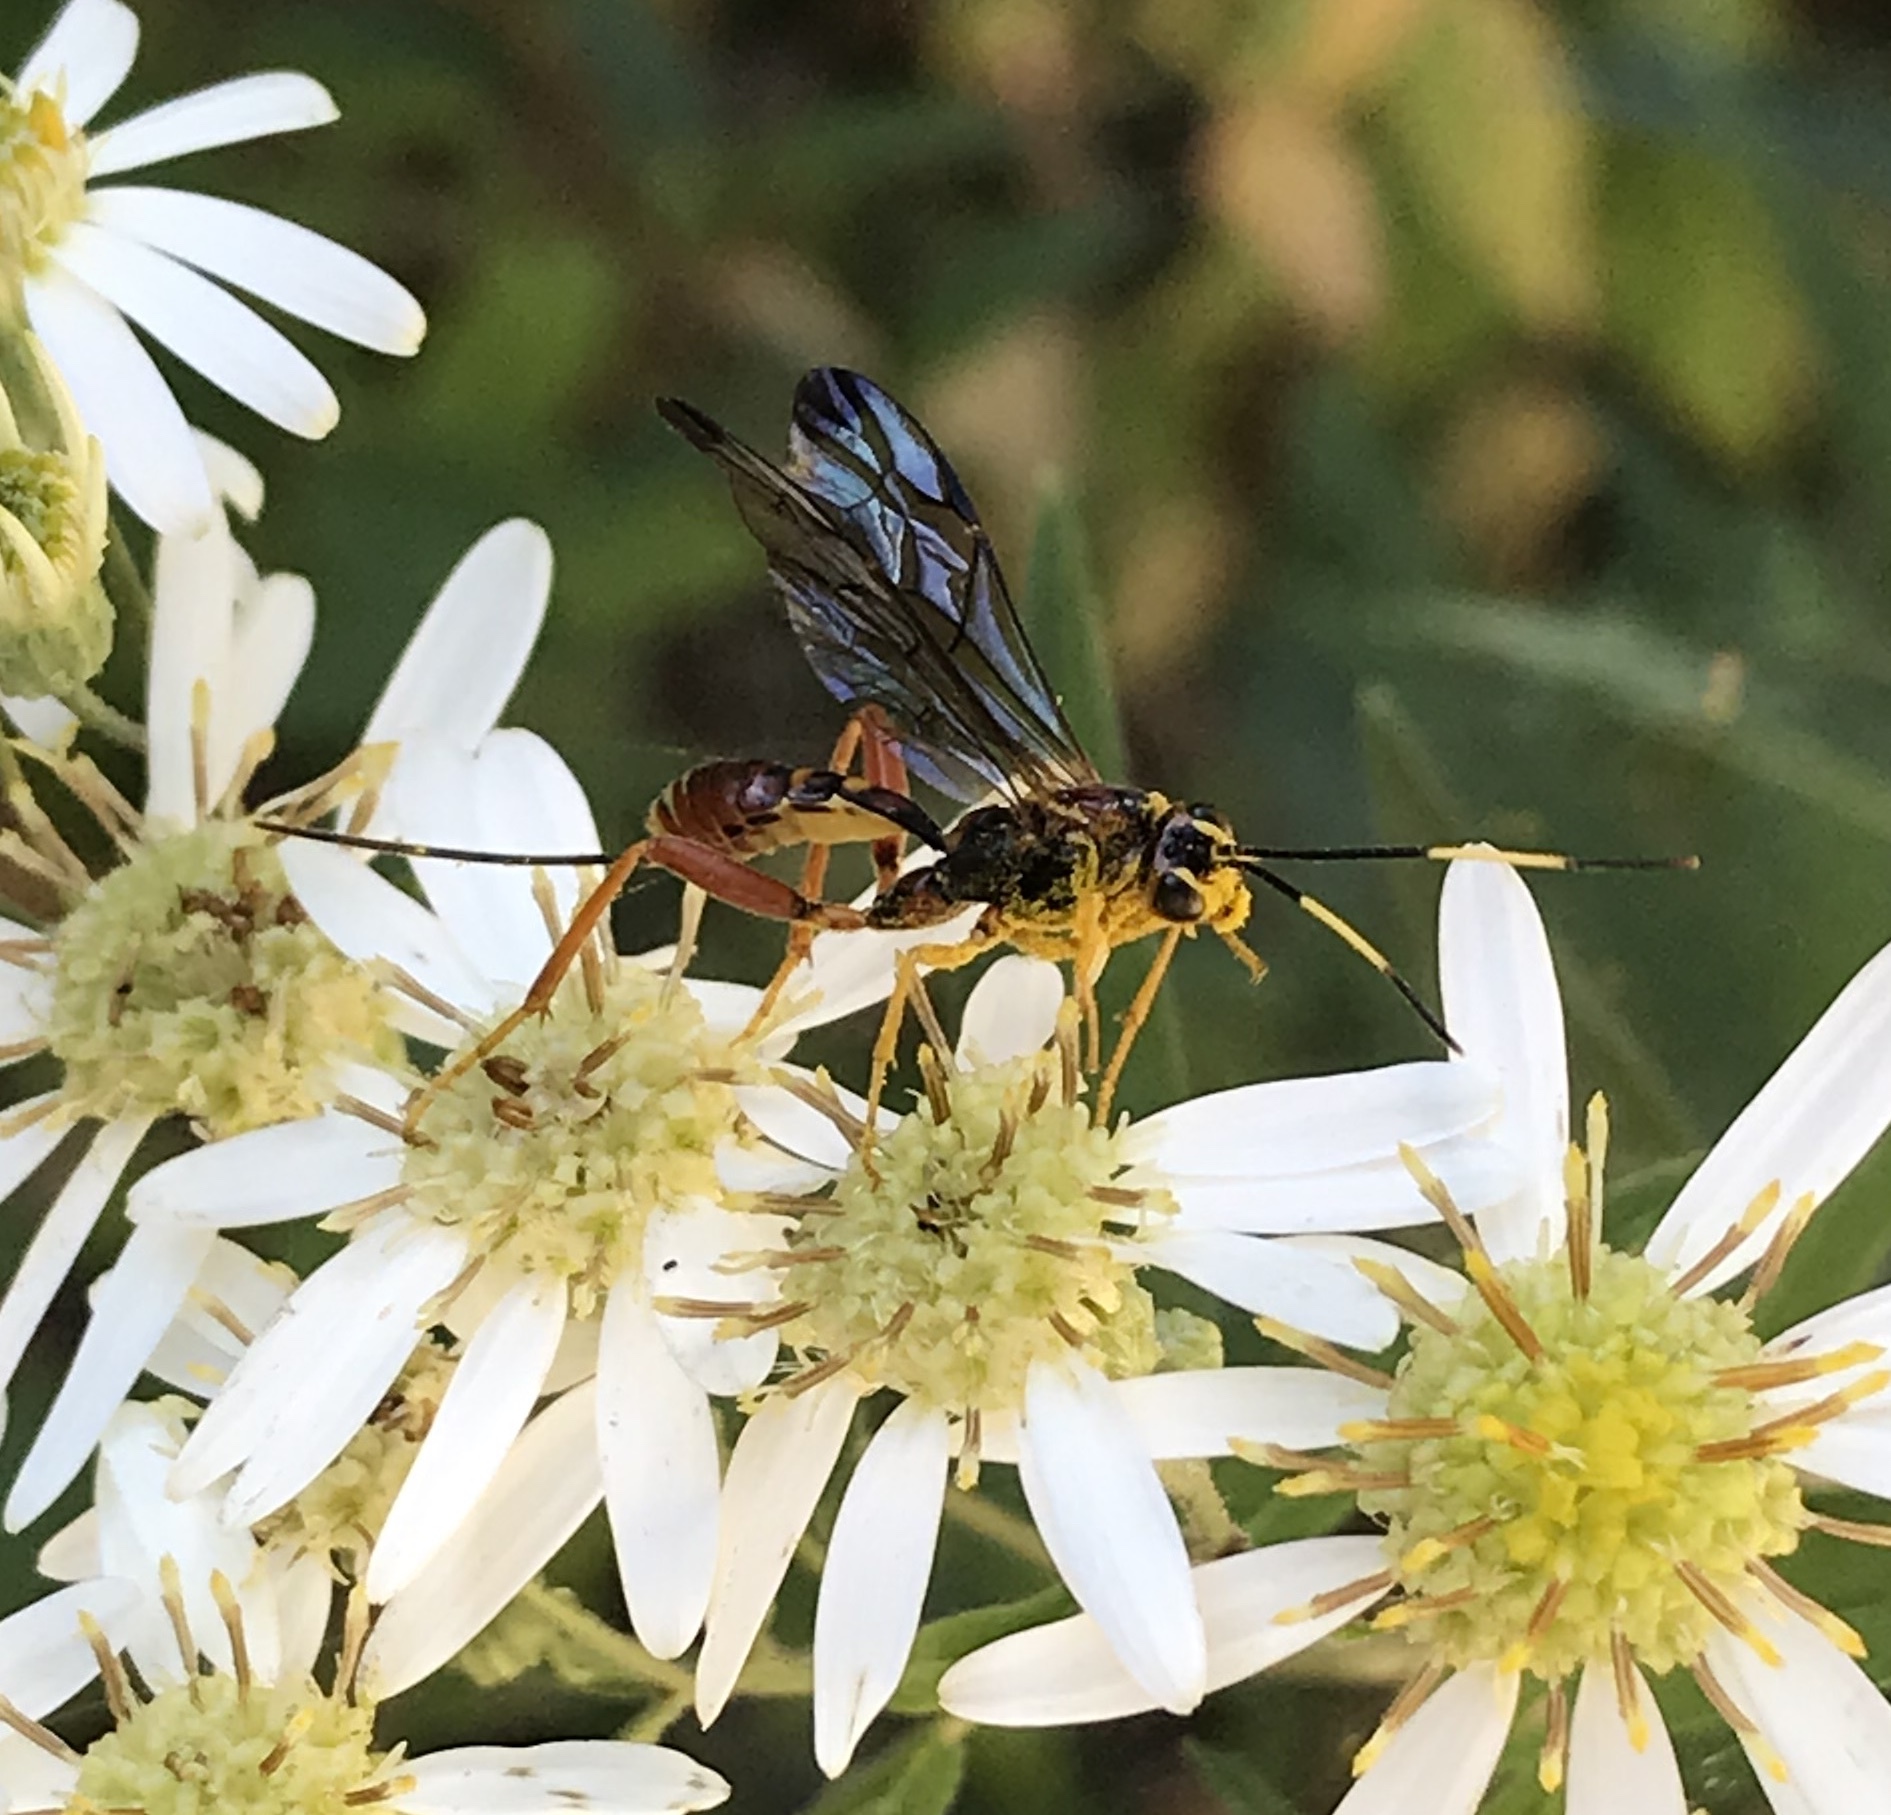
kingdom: Animalia
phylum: Arthropoda
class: Insecta
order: Hymenoptera
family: Ichneumonidae
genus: Spilopteron
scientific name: Spilopteron vicinum
